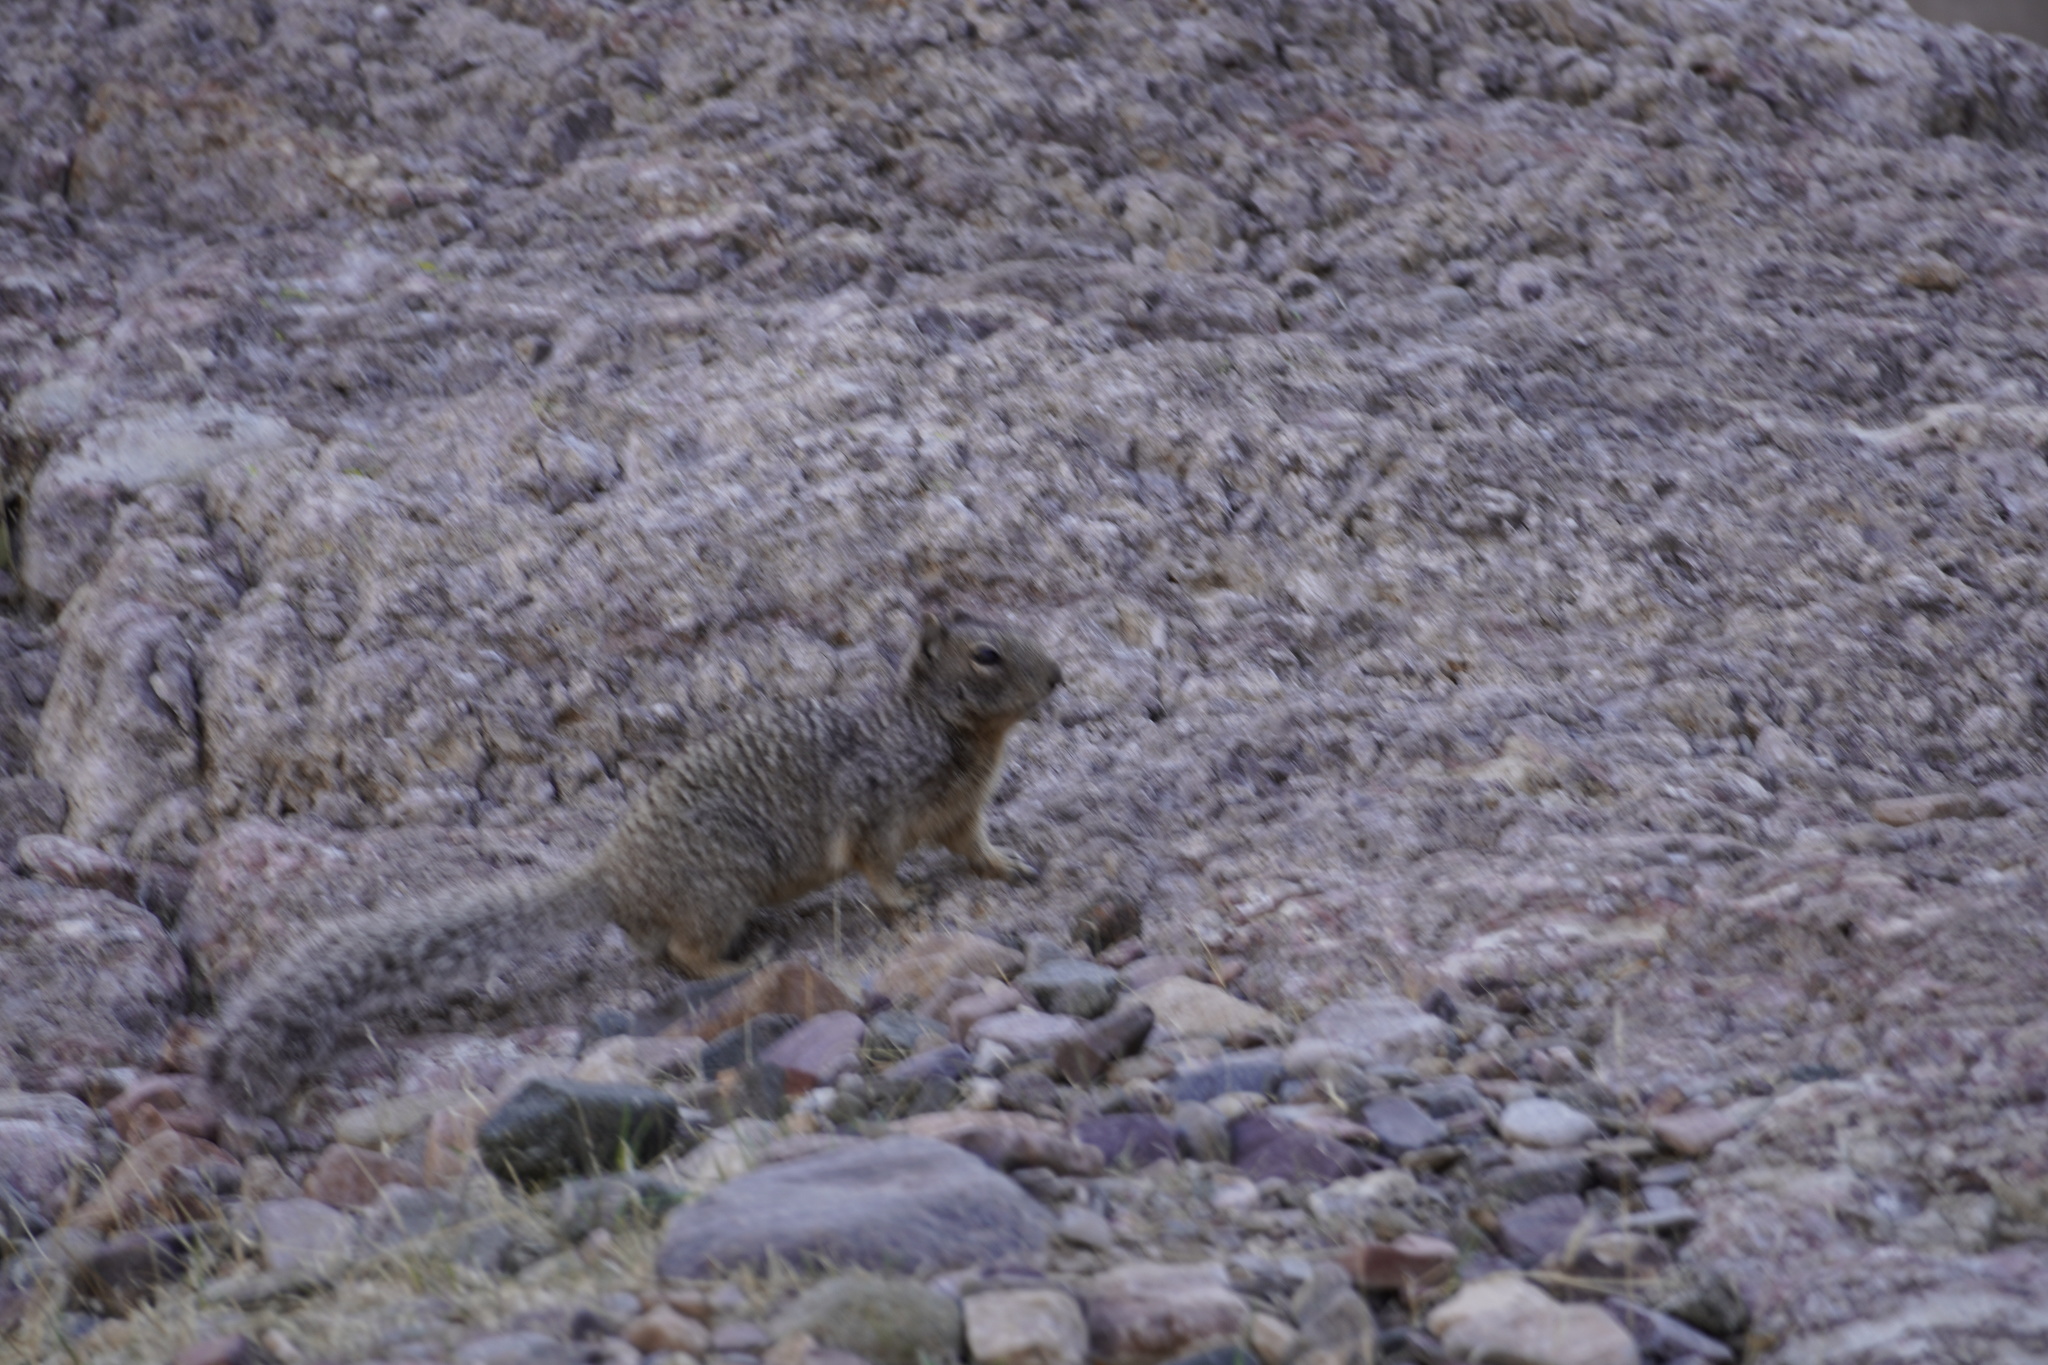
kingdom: Animalia
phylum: Chordata
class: Mammalia
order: Rodentia
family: Sciuridae
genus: Otospermophilus
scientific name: Otospermophilus variegatus
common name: Rock squirrel
